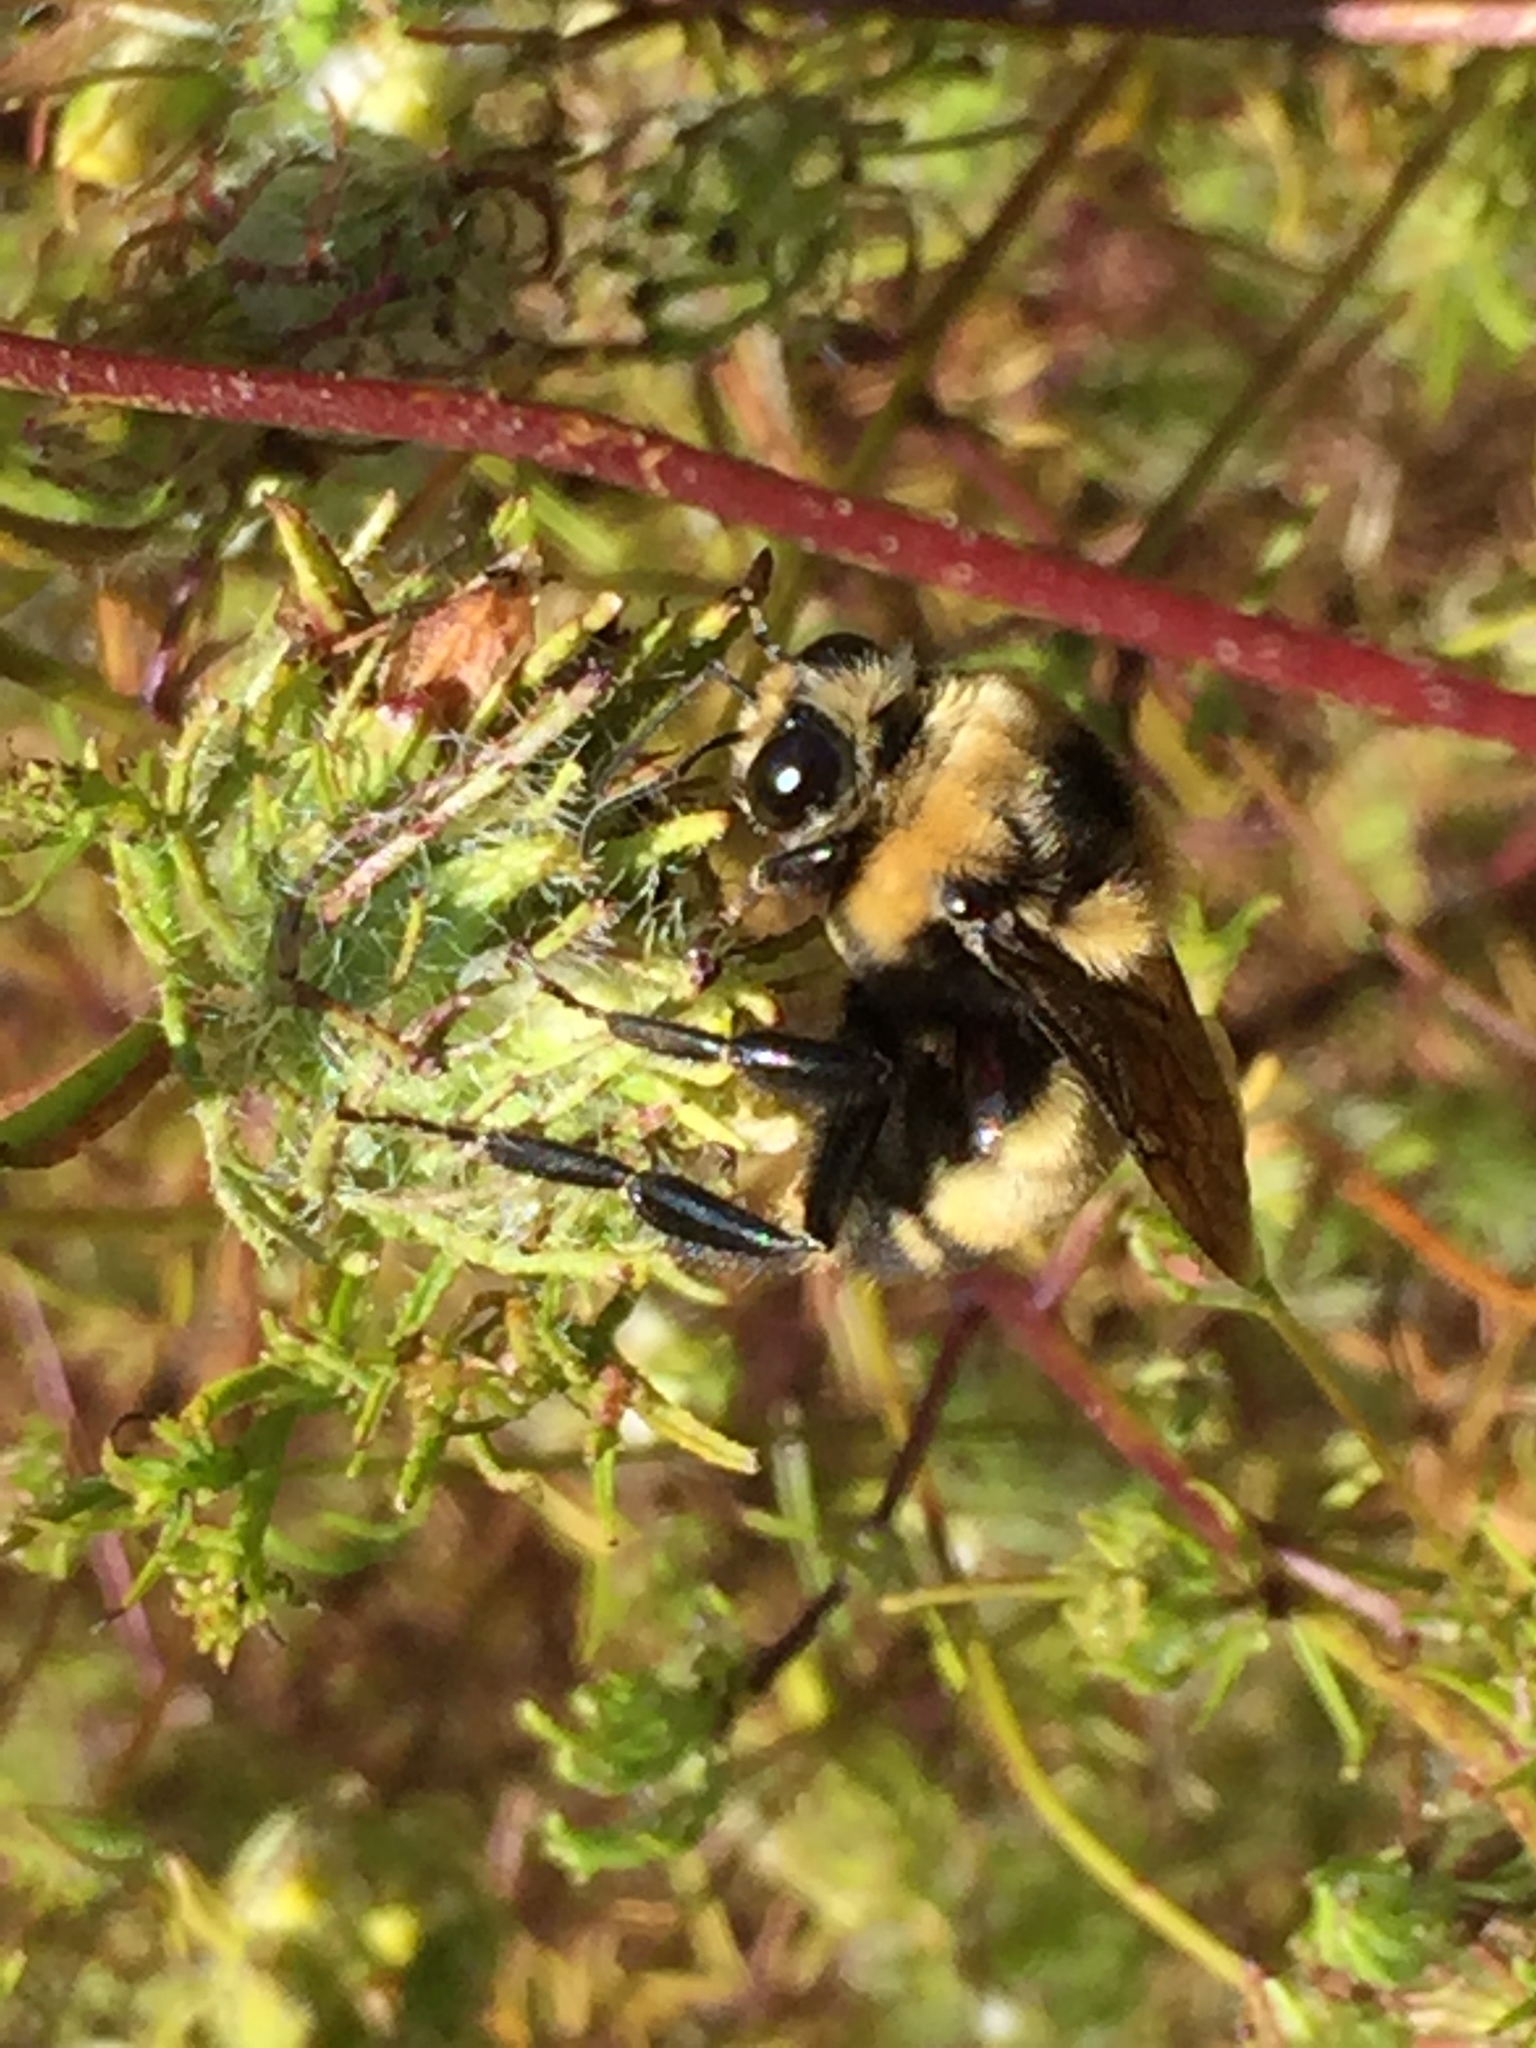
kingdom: Animalia
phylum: Arthropoda
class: Insecta
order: Hymenoptera
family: Apidae
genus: Bombus
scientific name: Bombus crotchii
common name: Crotch bumble bee
